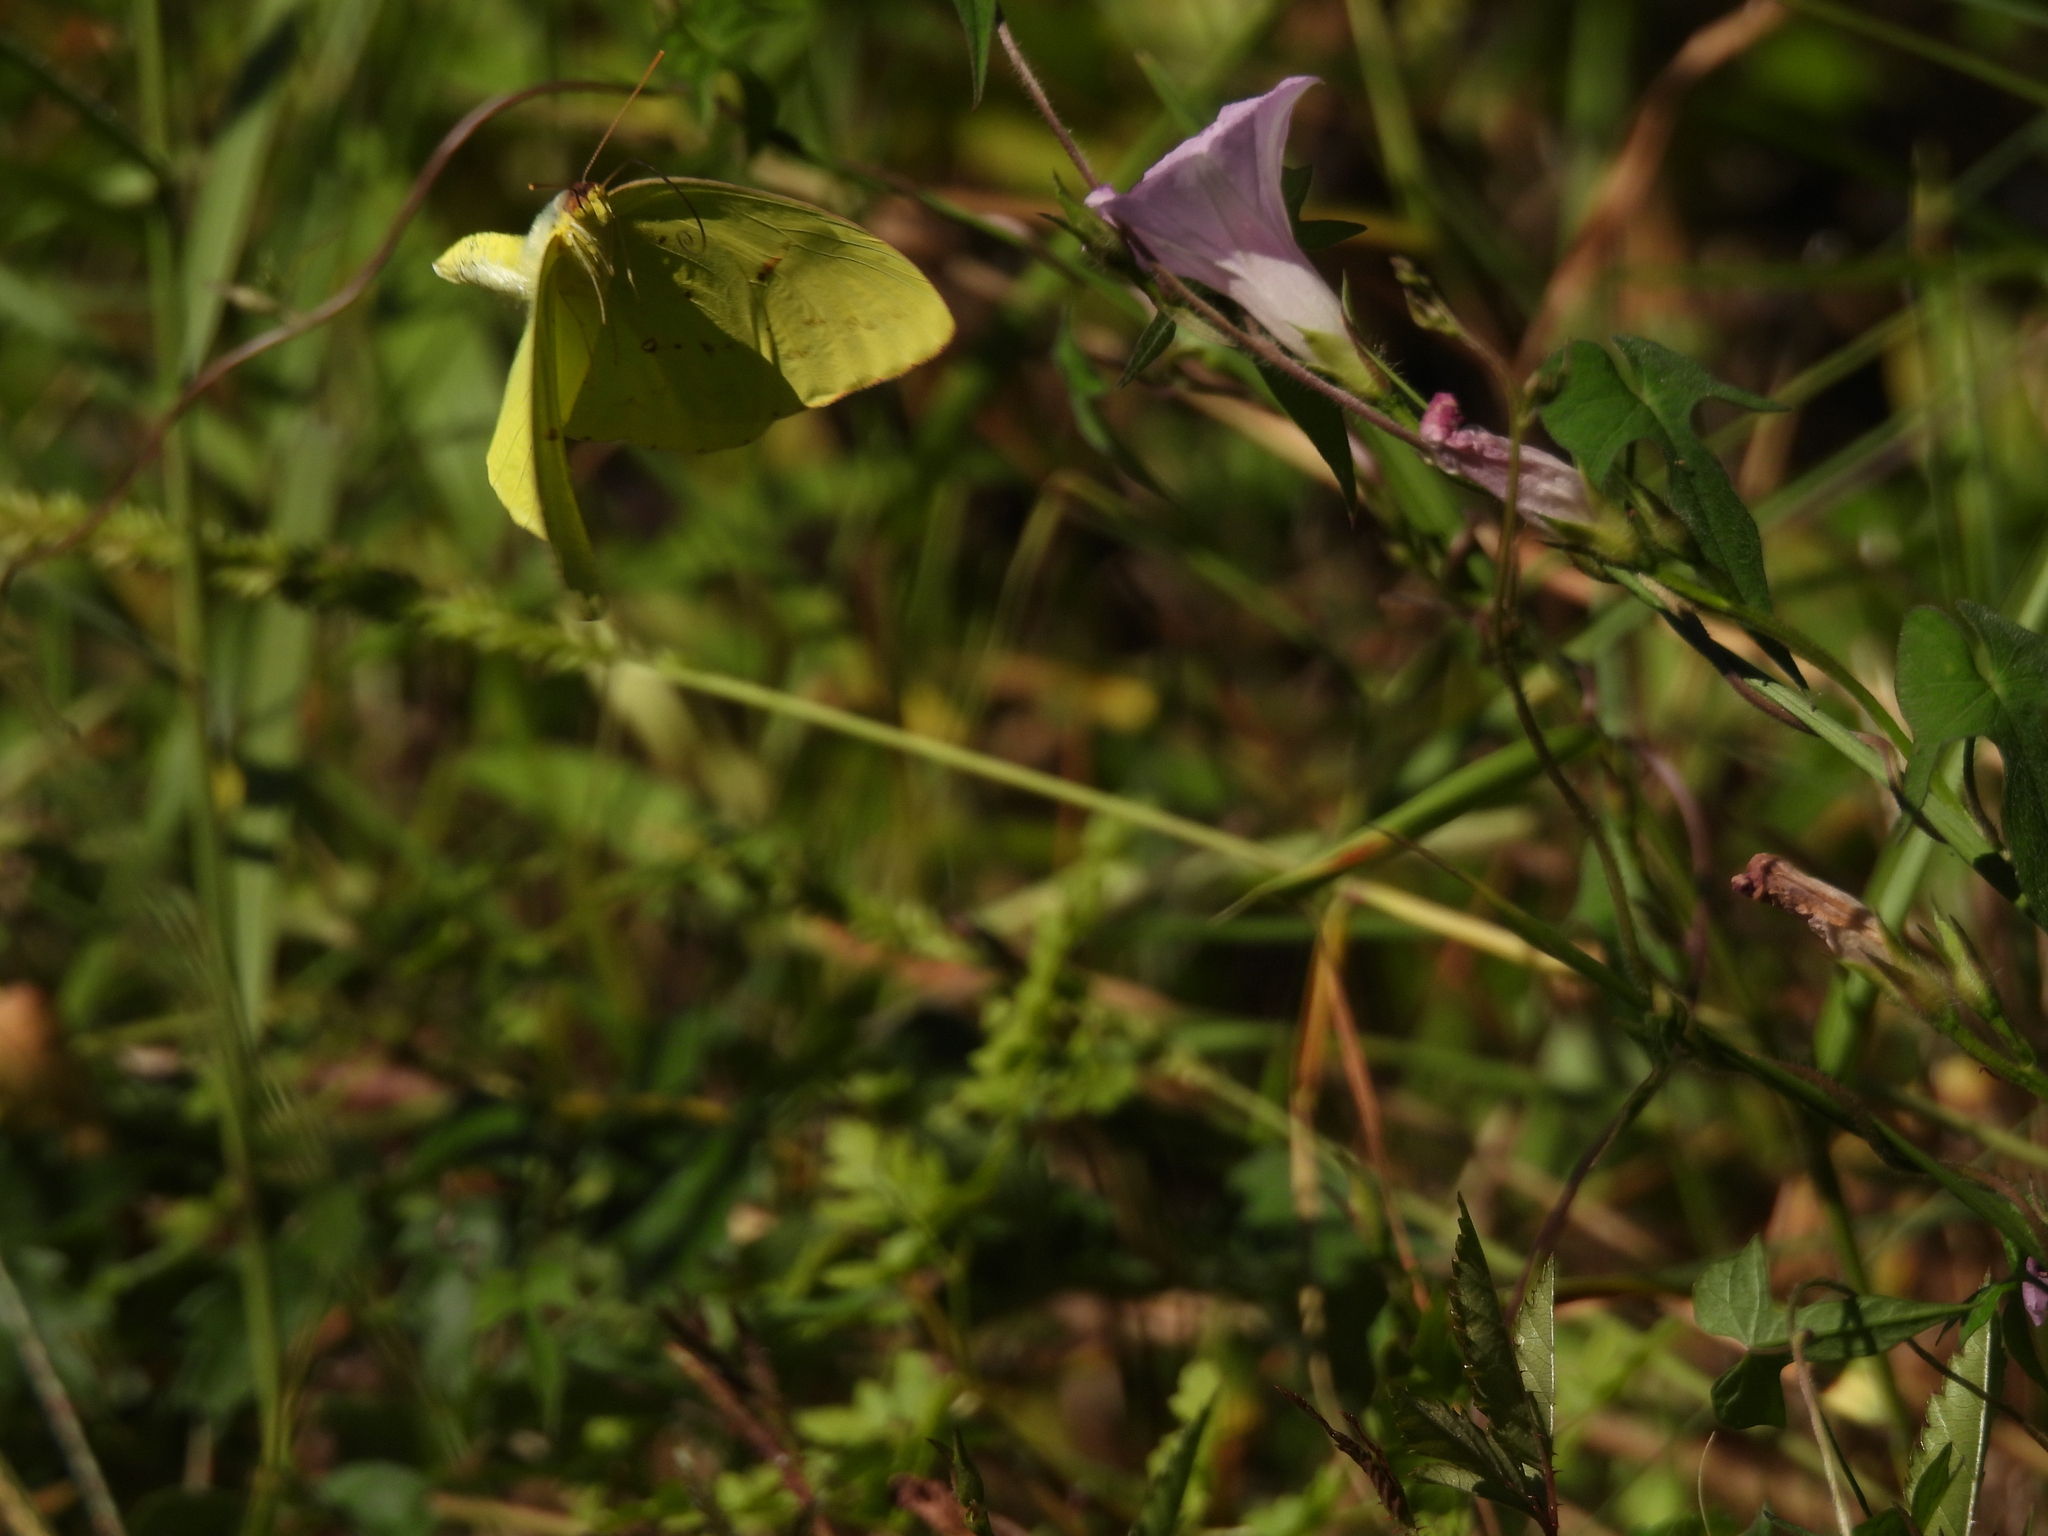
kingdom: Animalia
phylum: Arthropoda
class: Insecta
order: Lepidoptera
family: Pieridae
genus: Phoebis
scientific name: Phoebis sennae
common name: Cloudless sulphur
